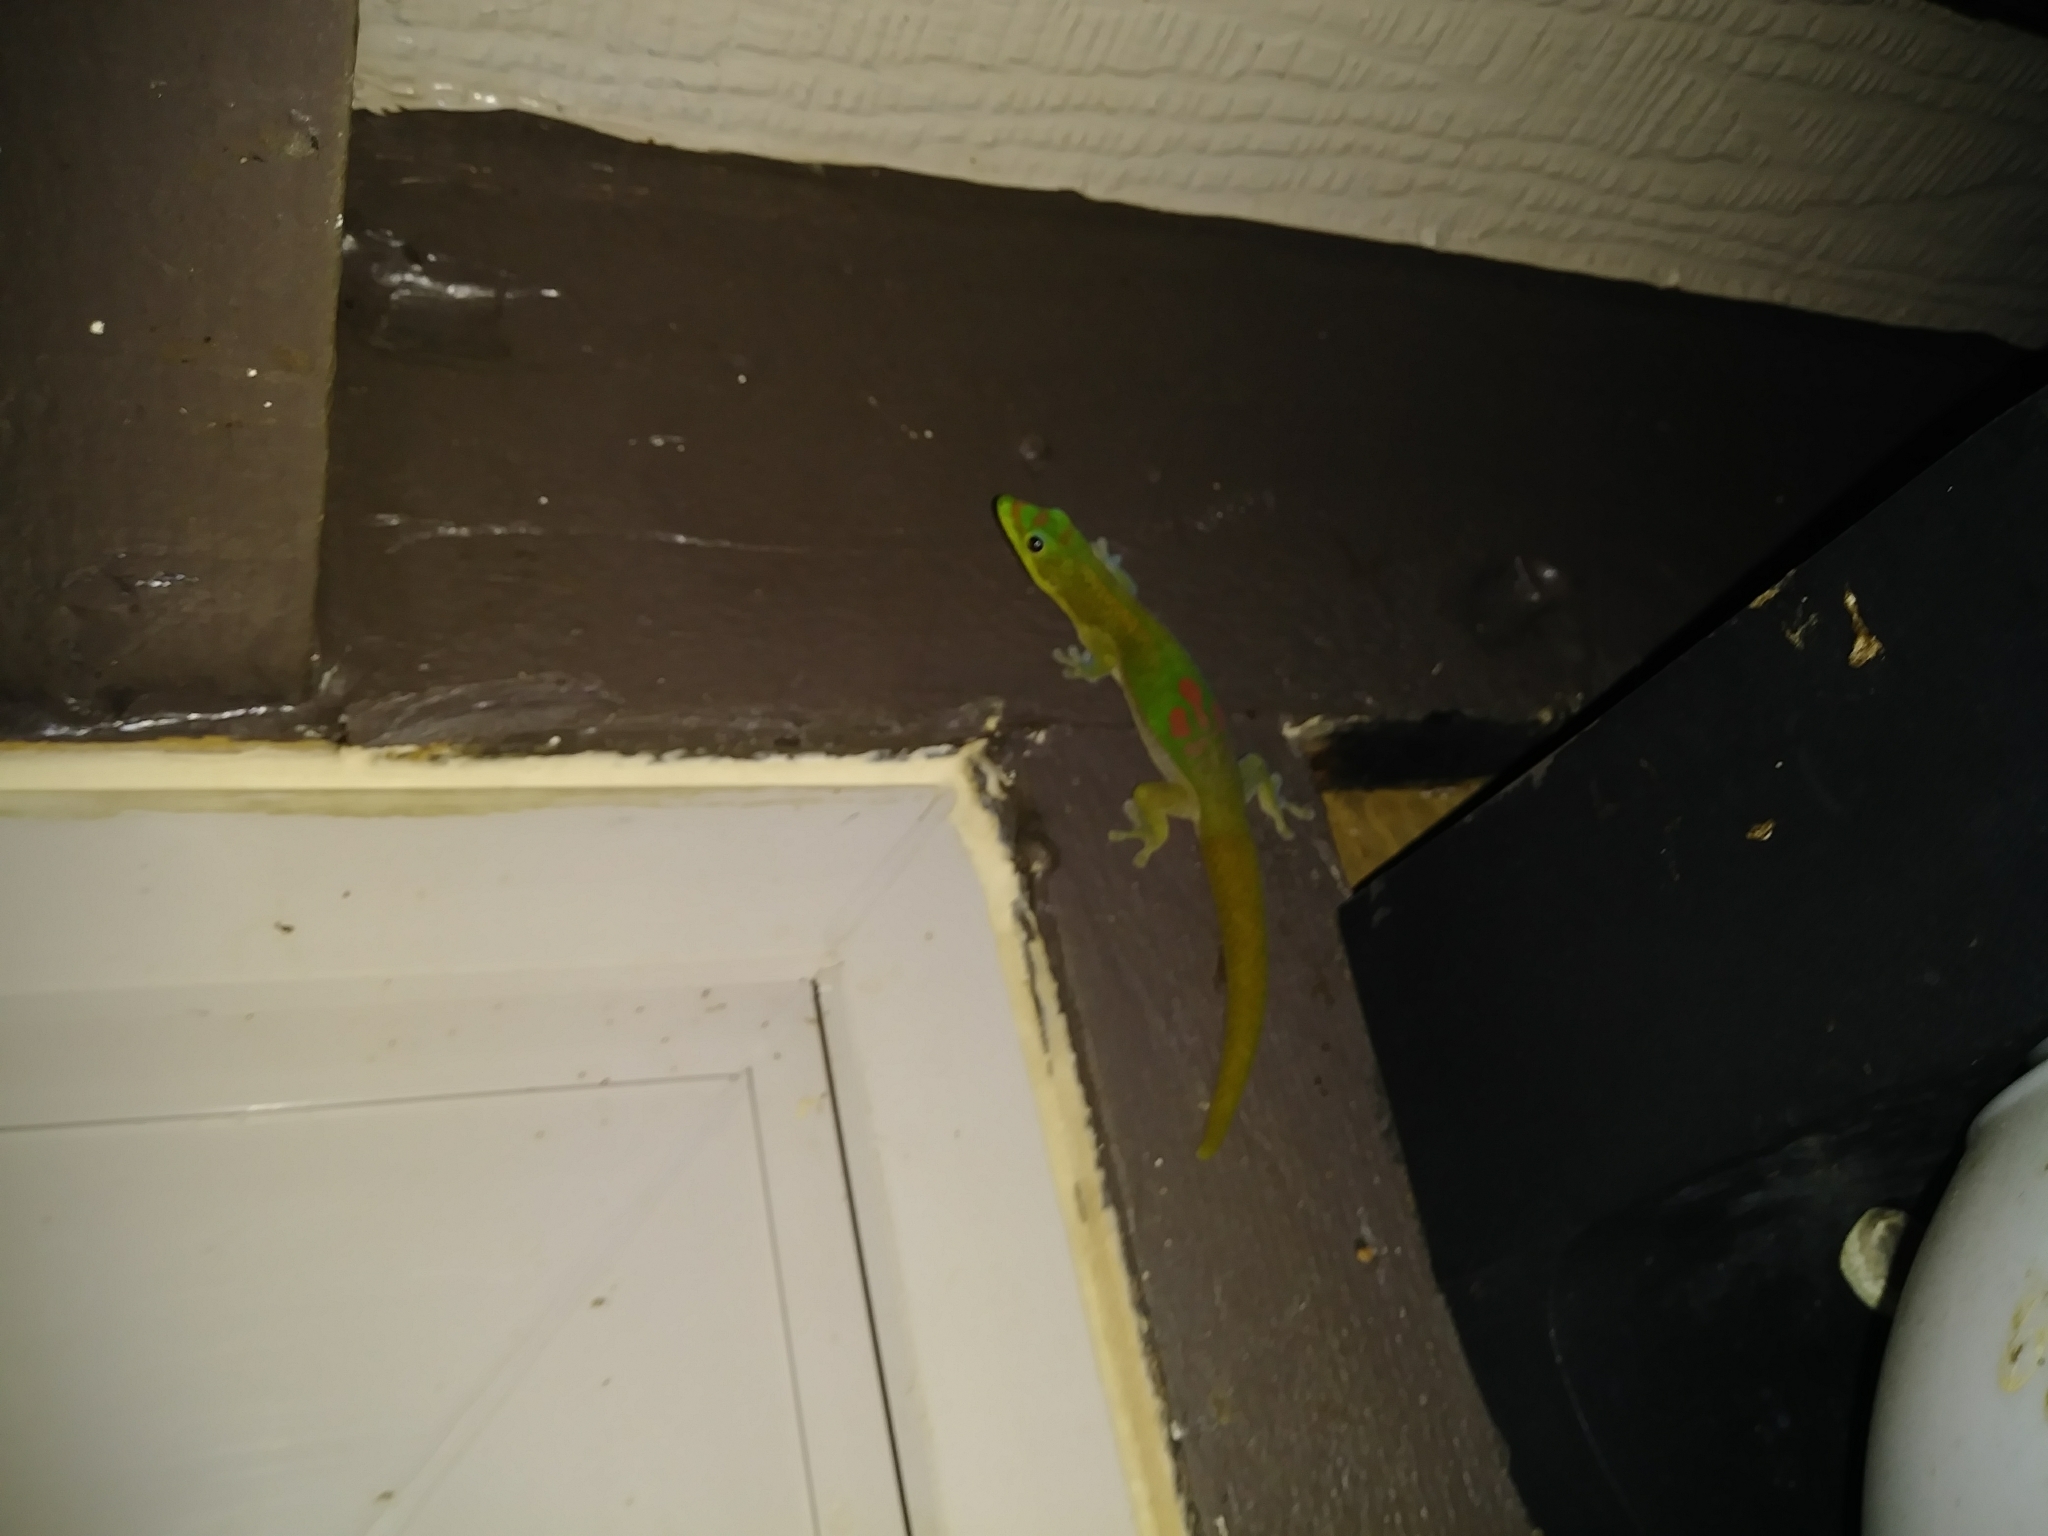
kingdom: Animalia
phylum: Chordata
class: Squamata
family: Gekkonidae
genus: Phelsuma
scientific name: Phelsuma laticauda
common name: Gold dust day gecko
